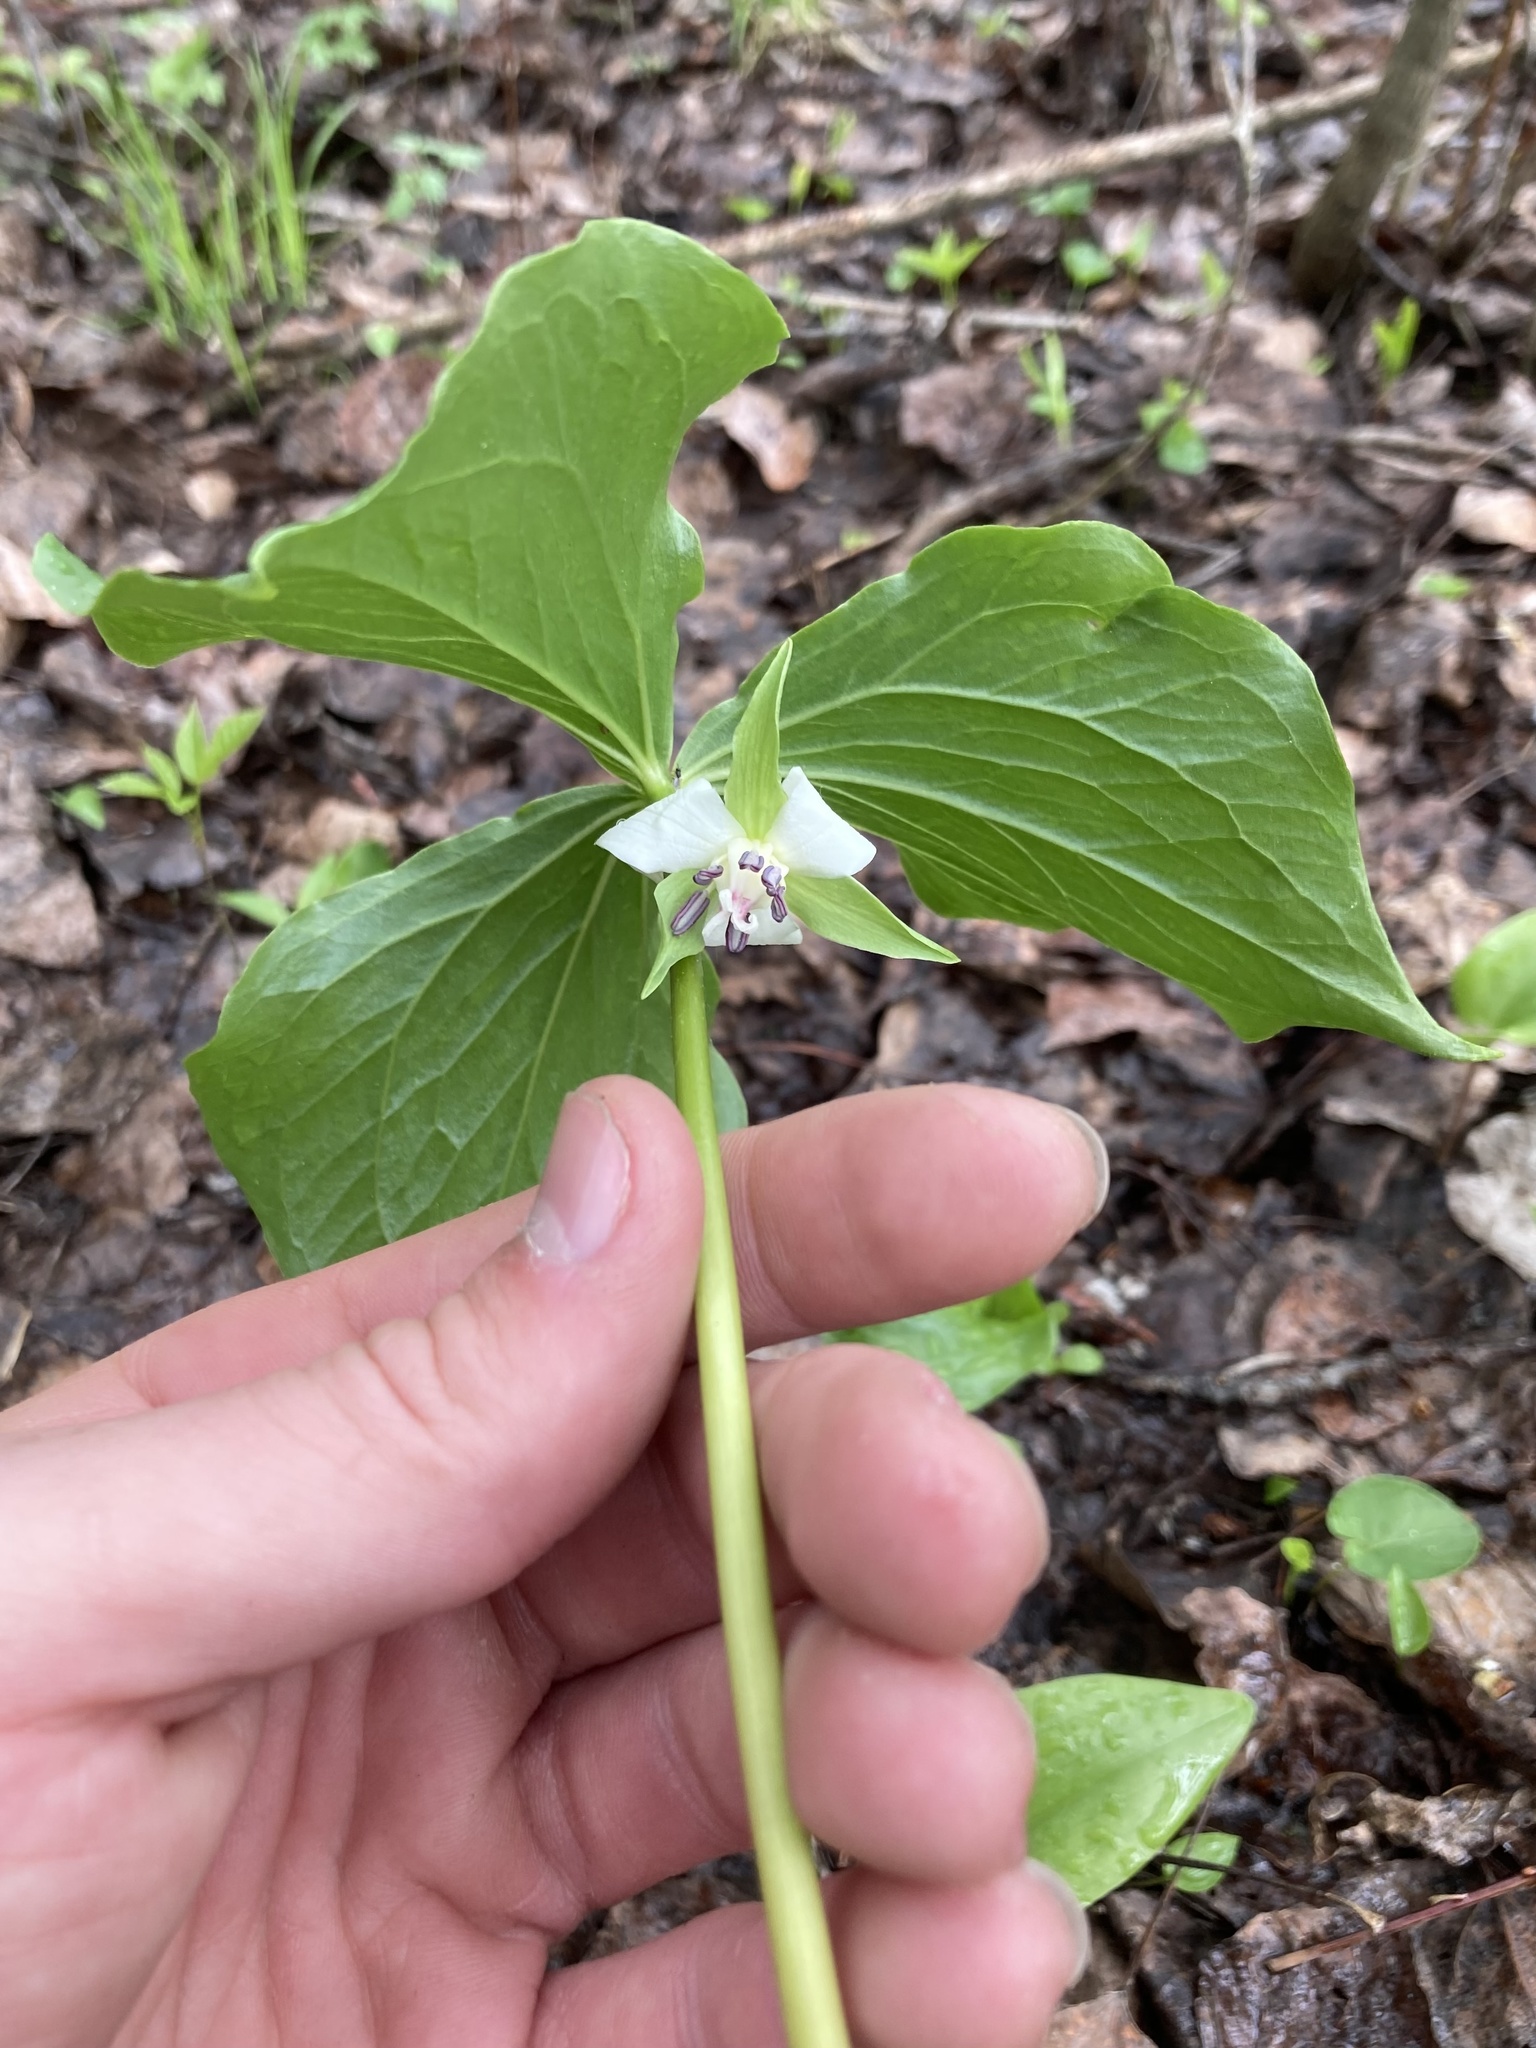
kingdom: Plantae
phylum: Tracheophyta
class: Liliopsida
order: Liliales
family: Melanthiaceae
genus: Trillium
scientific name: Trillium cernuum
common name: Nodding trillium
